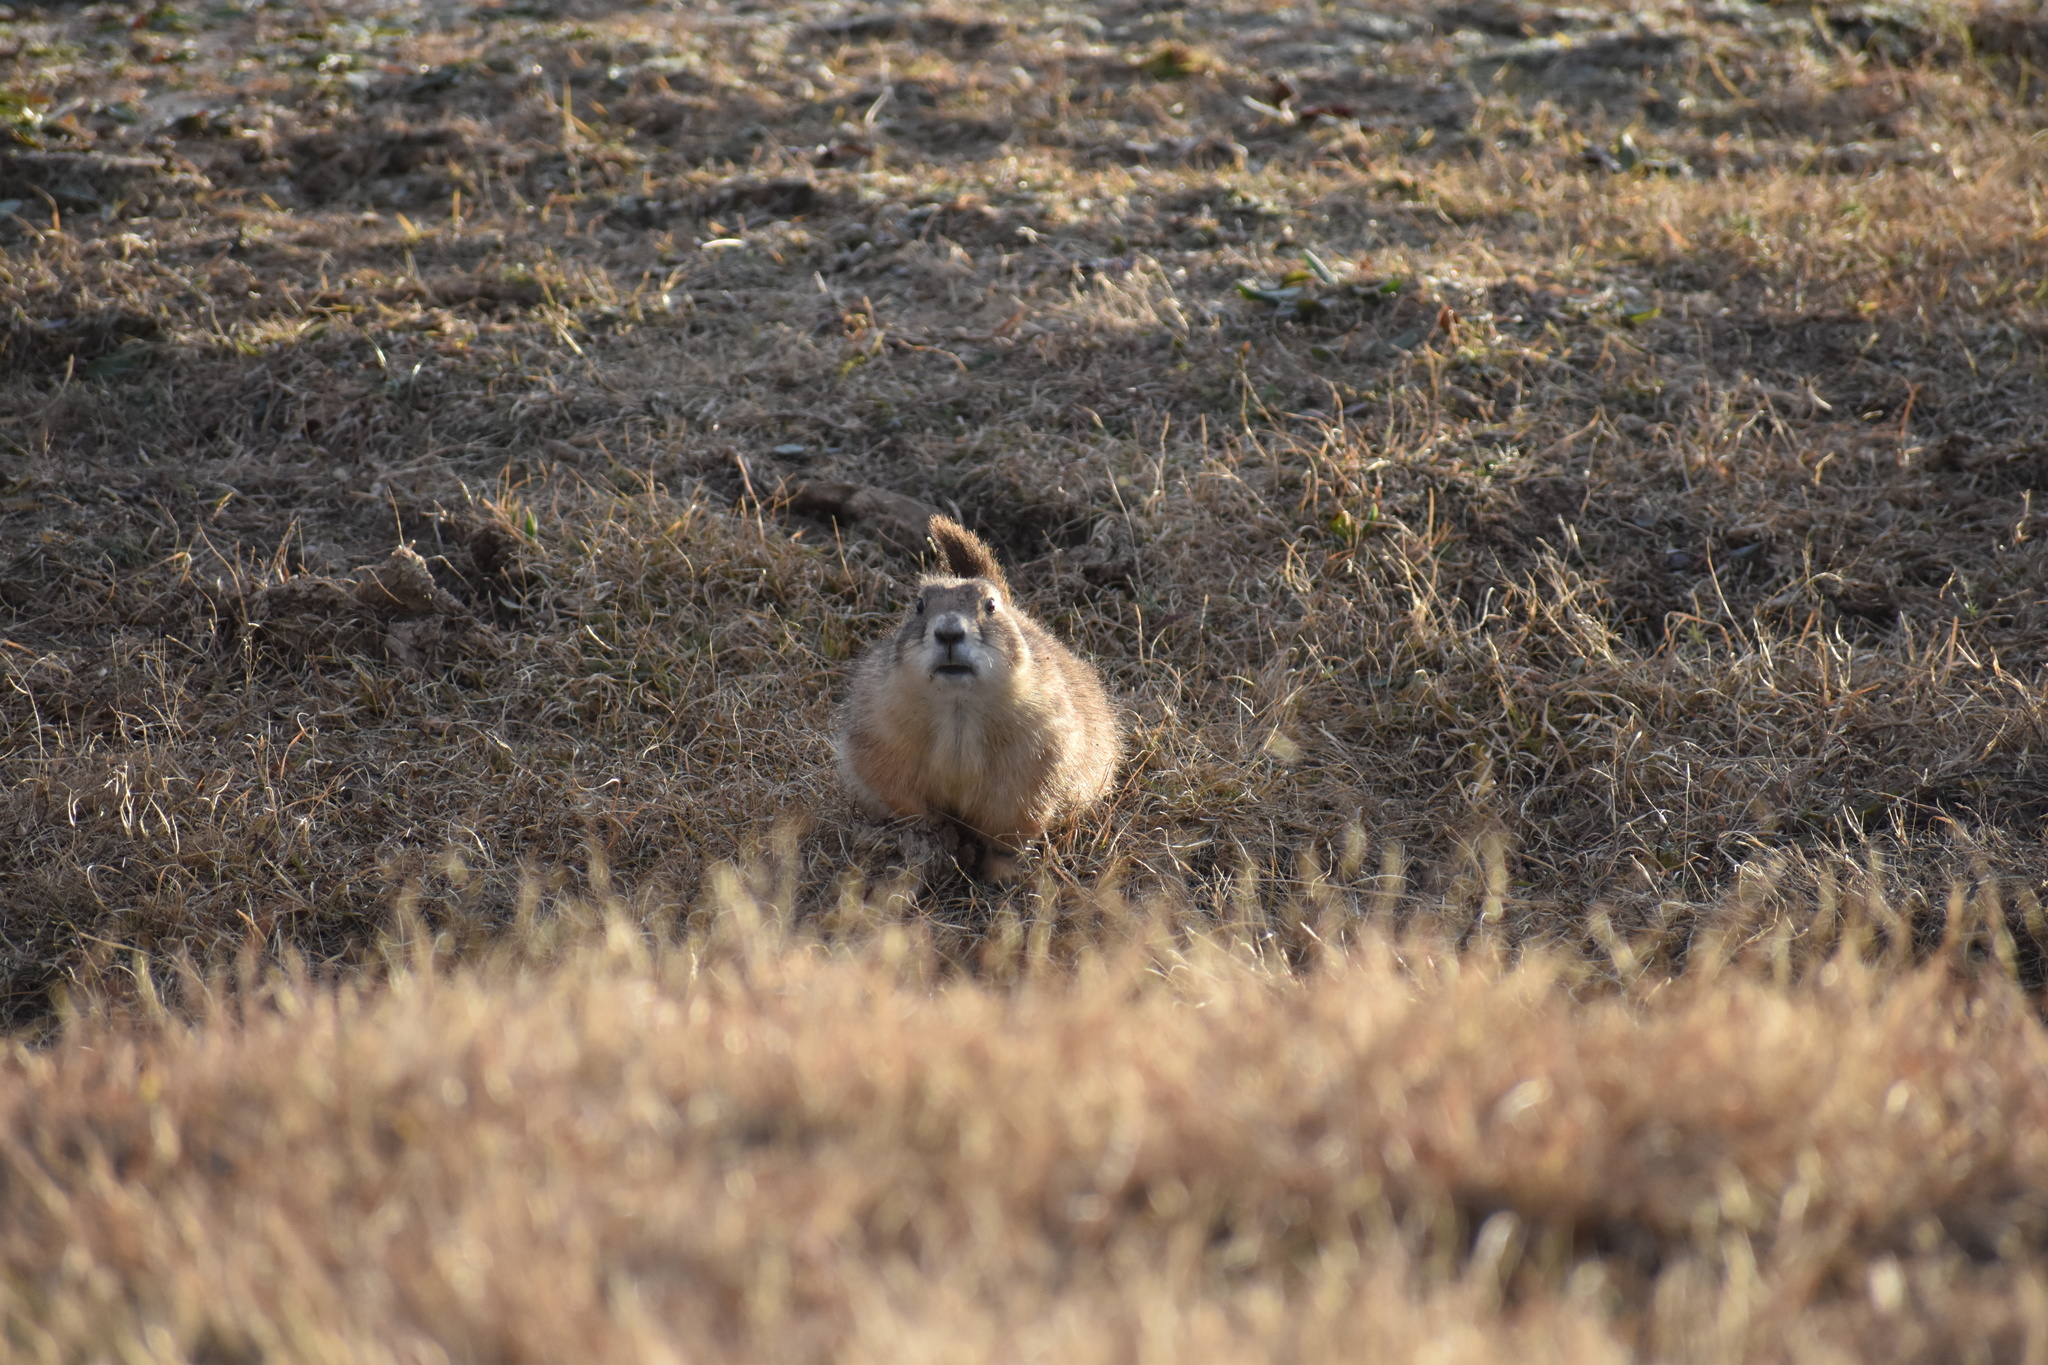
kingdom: Animalia
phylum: Chordata
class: Mammalia
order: Rodentia
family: Sciuridae
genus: Cynomys
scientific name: Cynomys ludovicianus
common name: Black-tailed prairie dog
